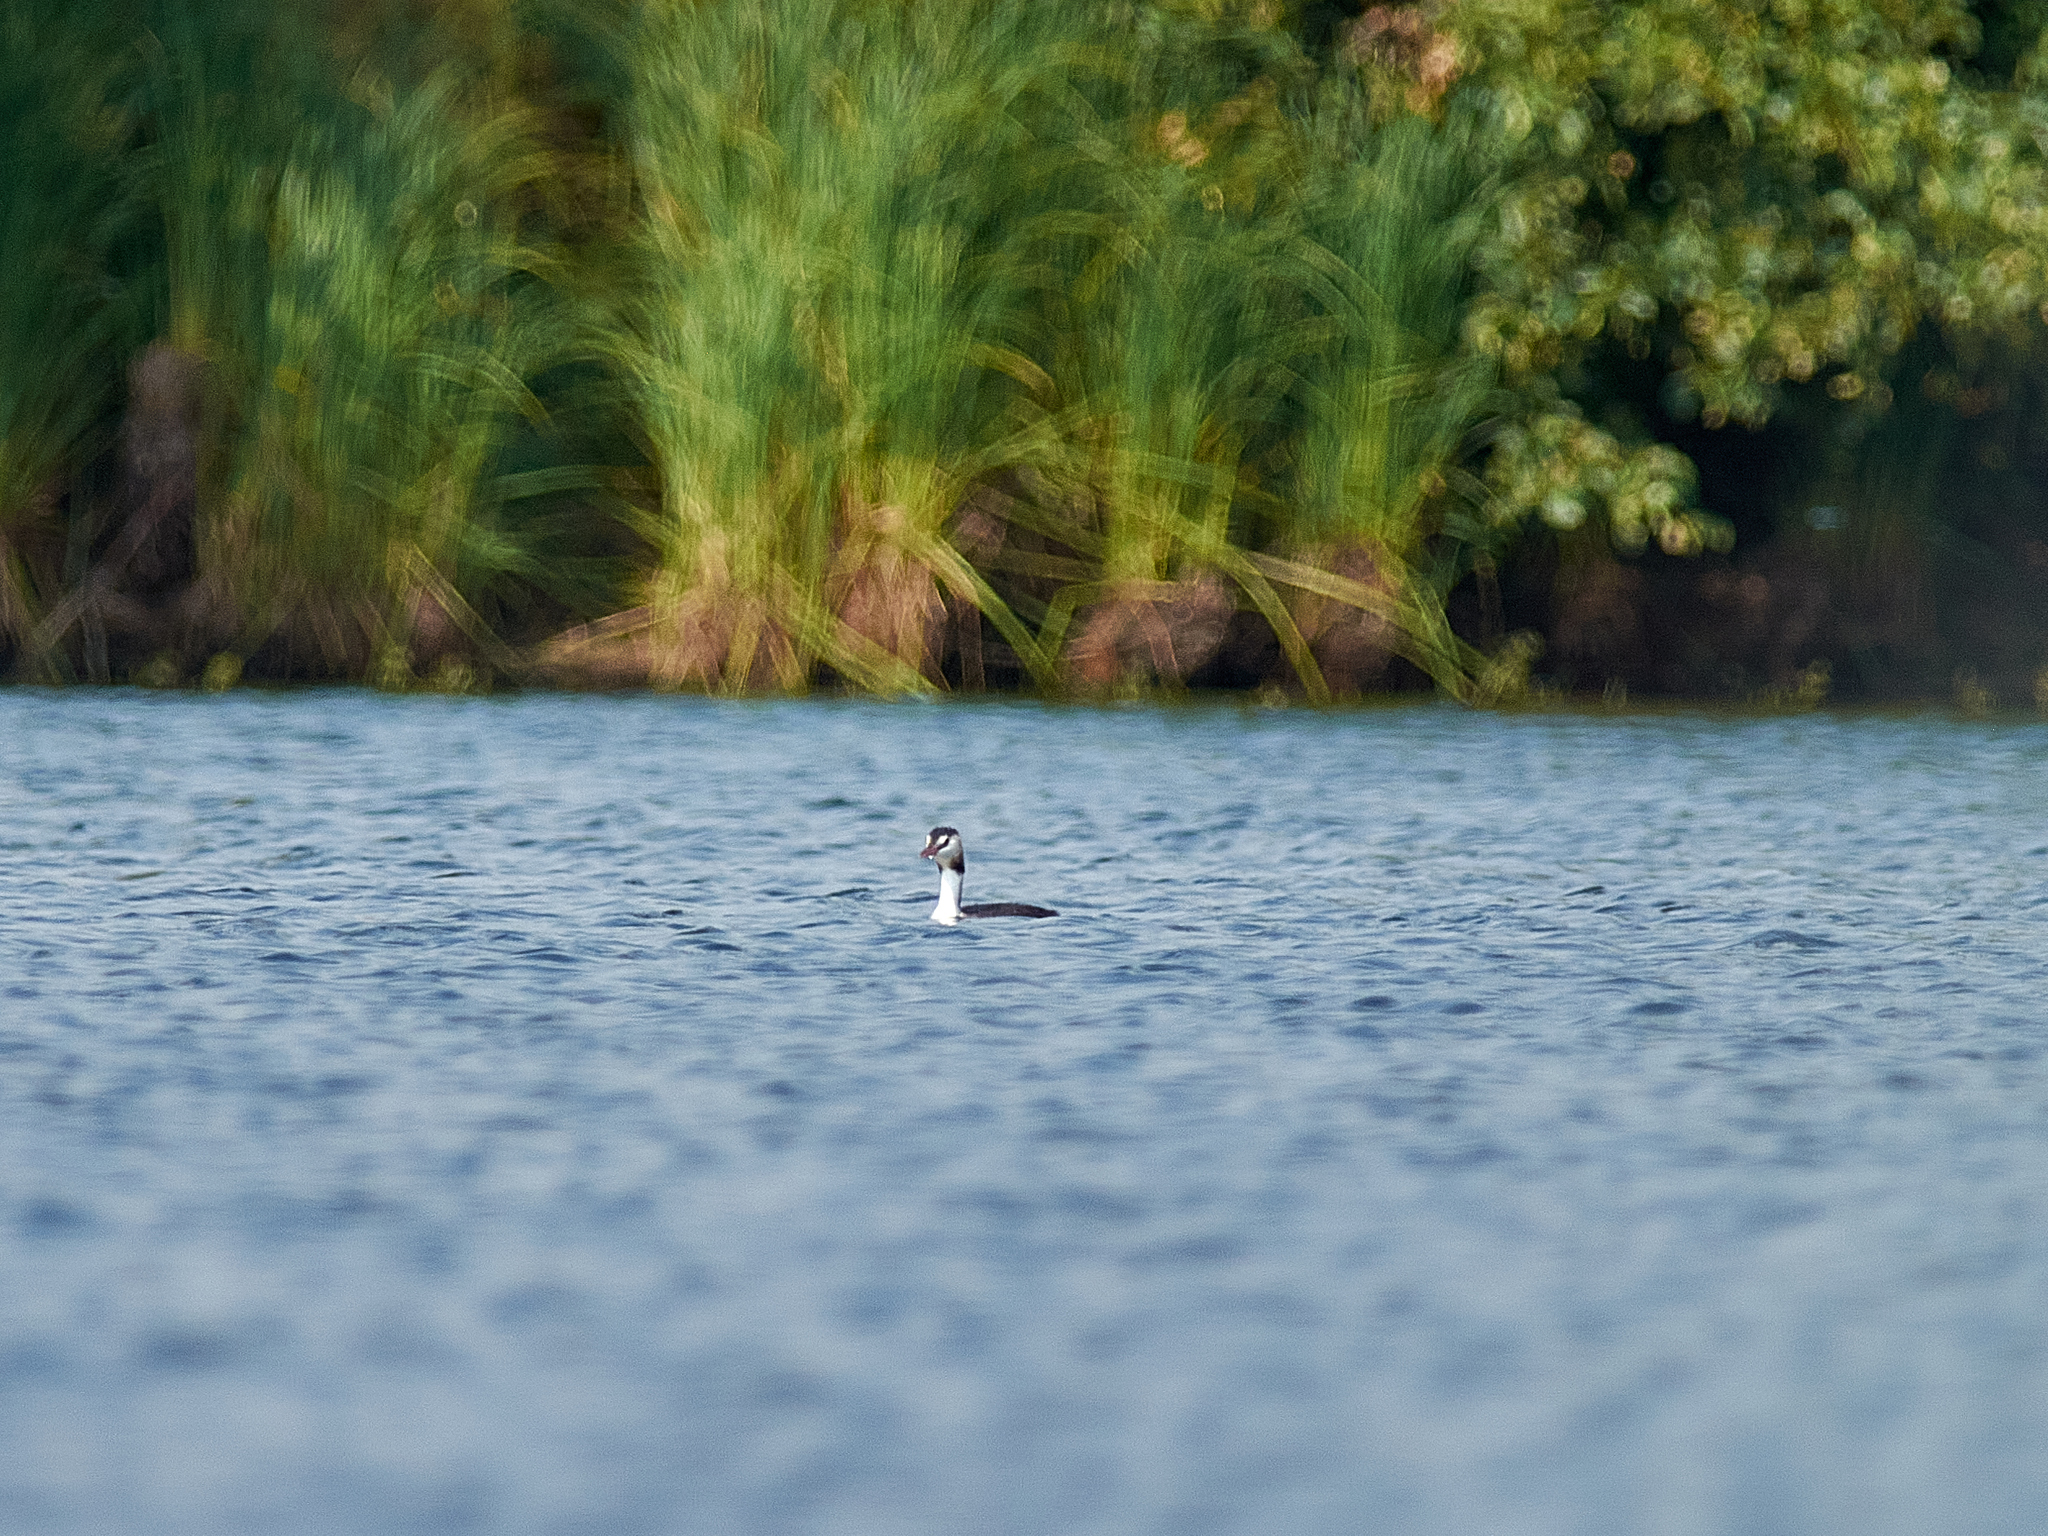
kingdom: Animalia
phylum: Chordata
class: Aves
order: Podicipediformes
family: Podicipedidae
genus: Podiceps
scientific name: Podiceps cristatus
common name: Great crested grebe
